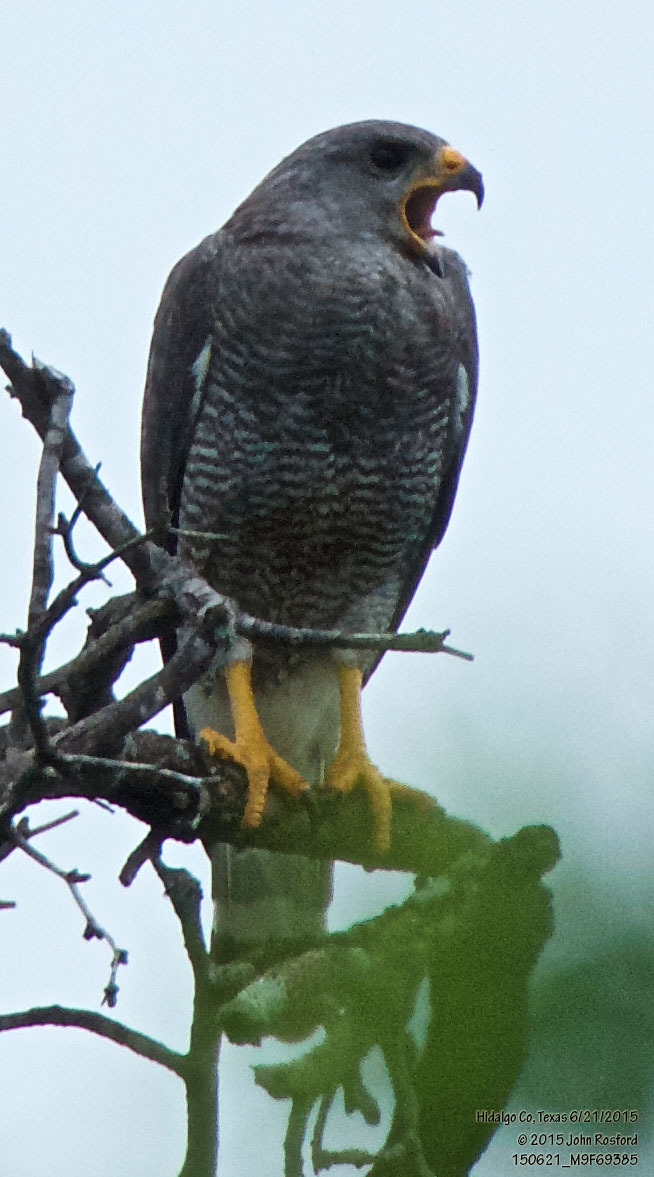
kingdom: Animalia
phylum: Chordata
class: Aves
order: Accipitriformes
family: Accipitridae
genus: Buteo
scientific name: Buteo nitidus
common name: Grey-lined hawk
